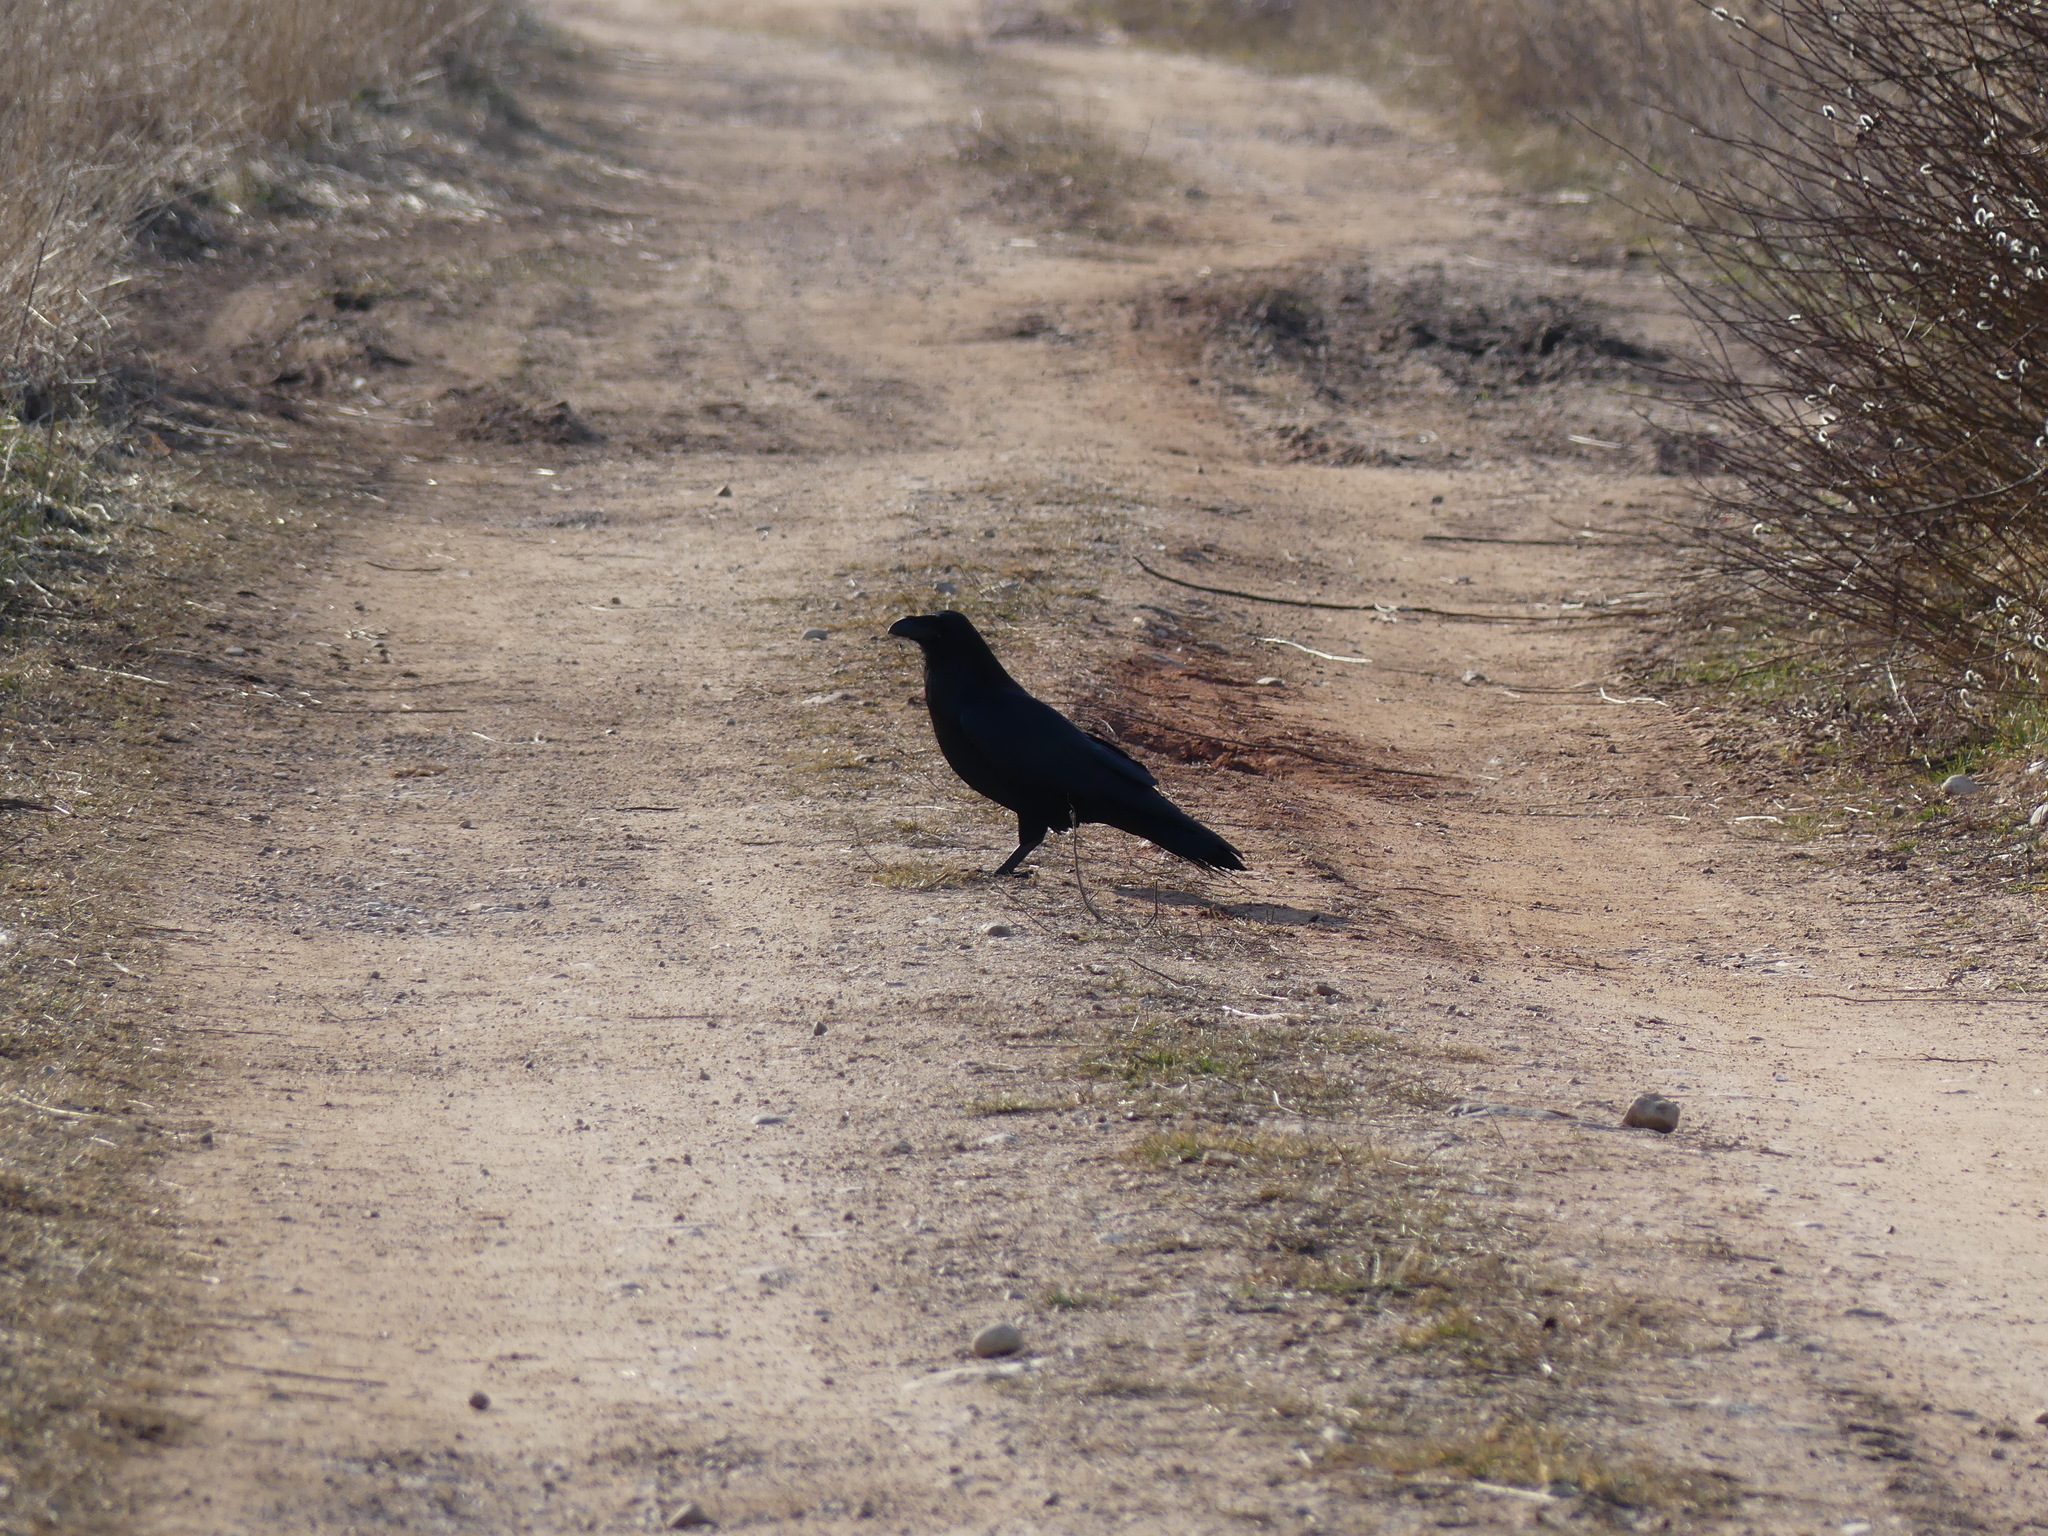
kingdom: Animalia
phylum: Chordata
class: Aves
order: Passeriformes
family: Corvidae
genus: Corvus
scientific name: Corvus corax
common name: Common raven
